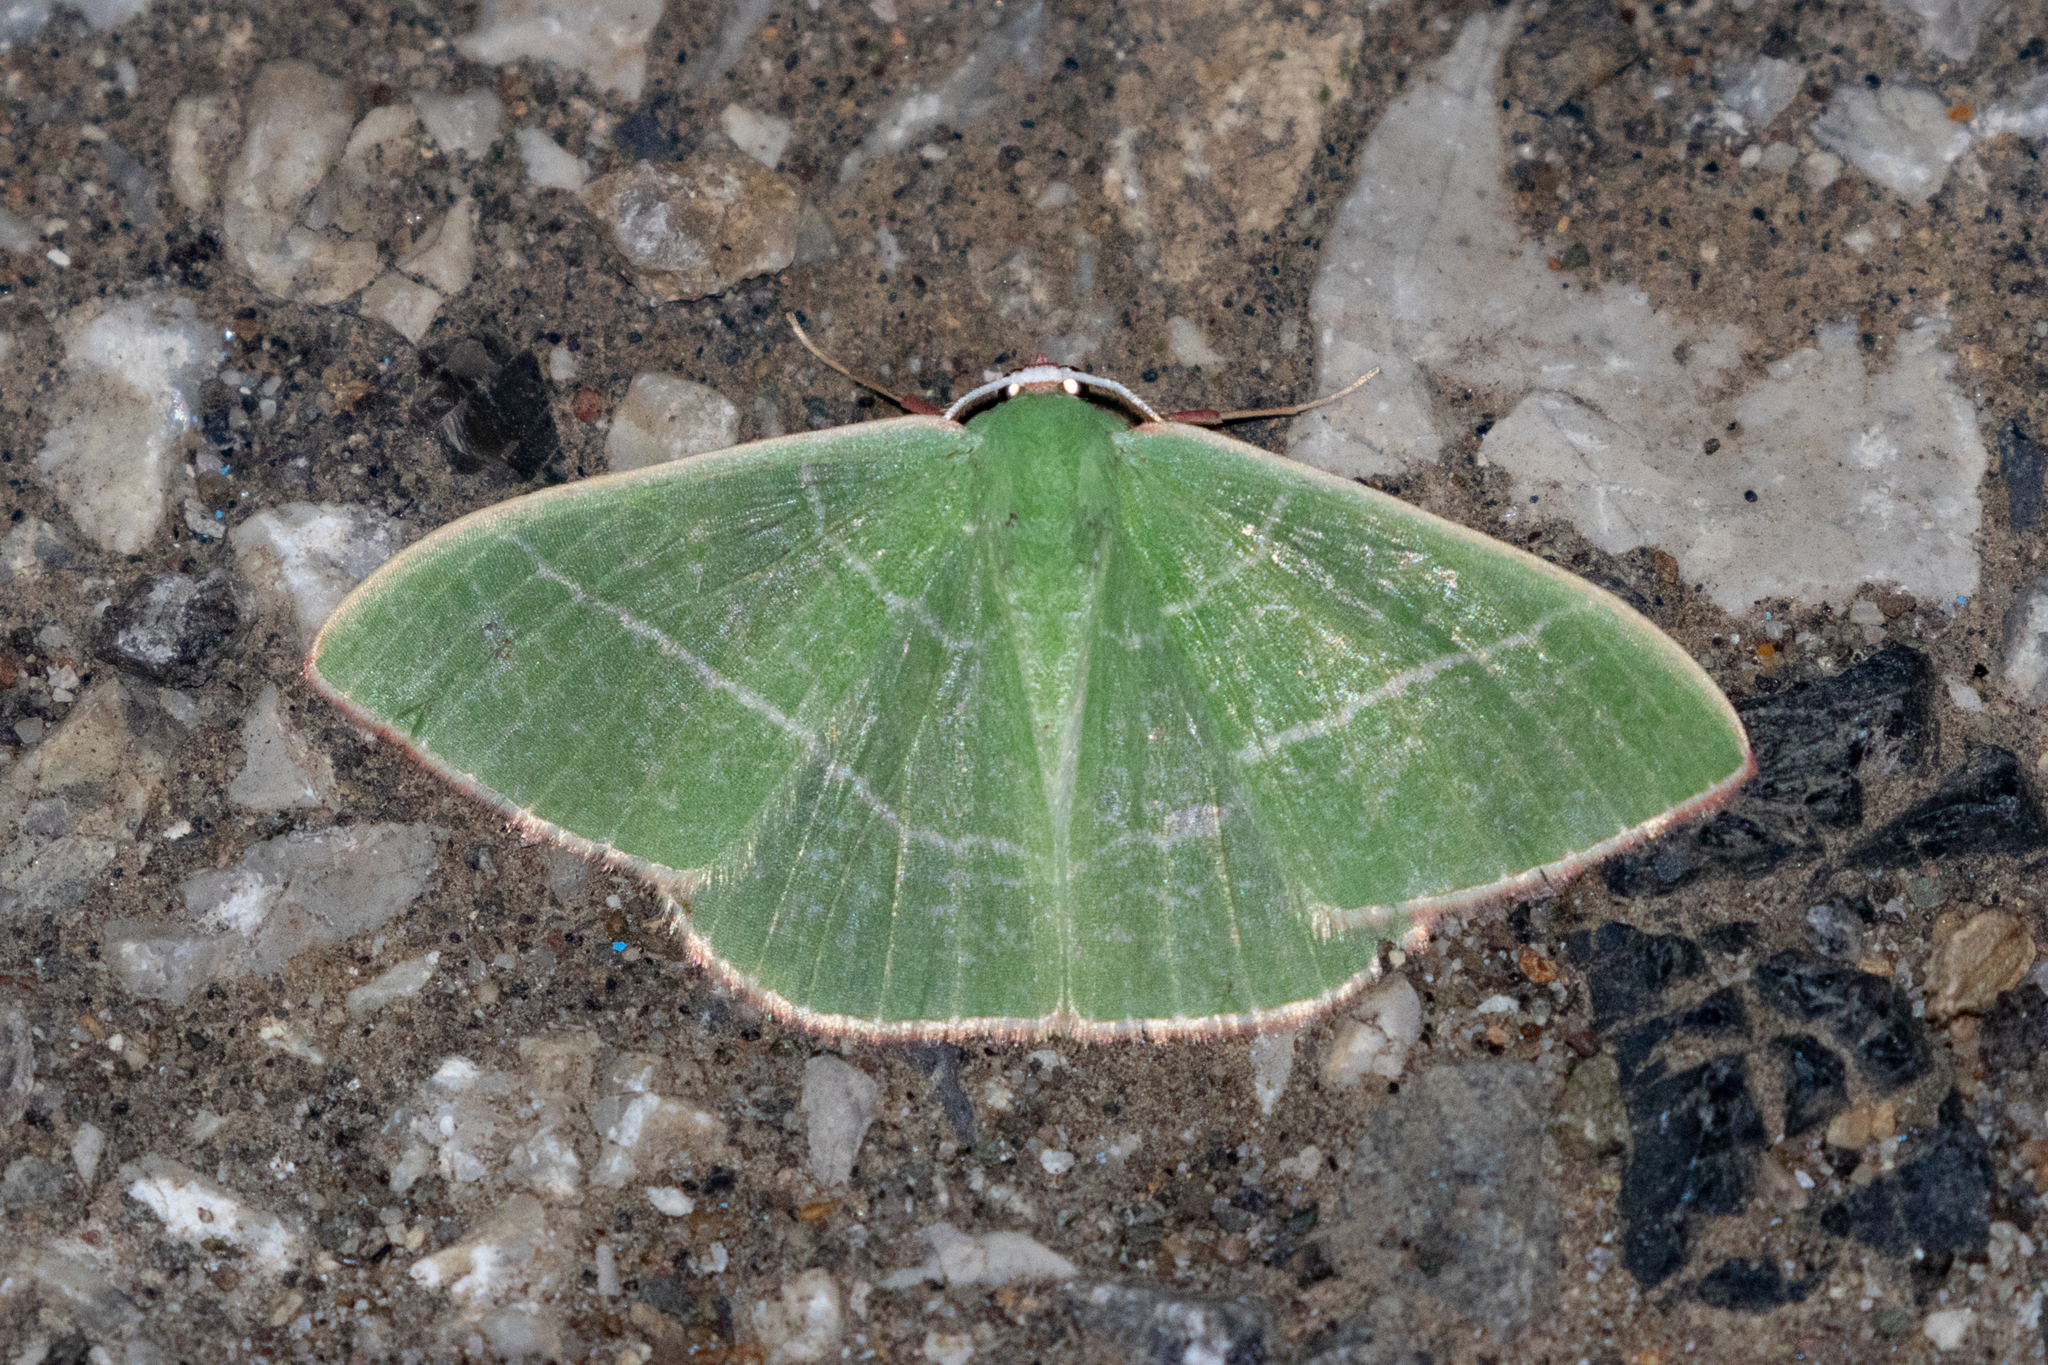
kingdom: Animalia
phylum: Arthropoda
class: Insecta
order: Lepidoptera
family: Geometridae
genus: Nemoria
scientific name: Nemoria leptalea
